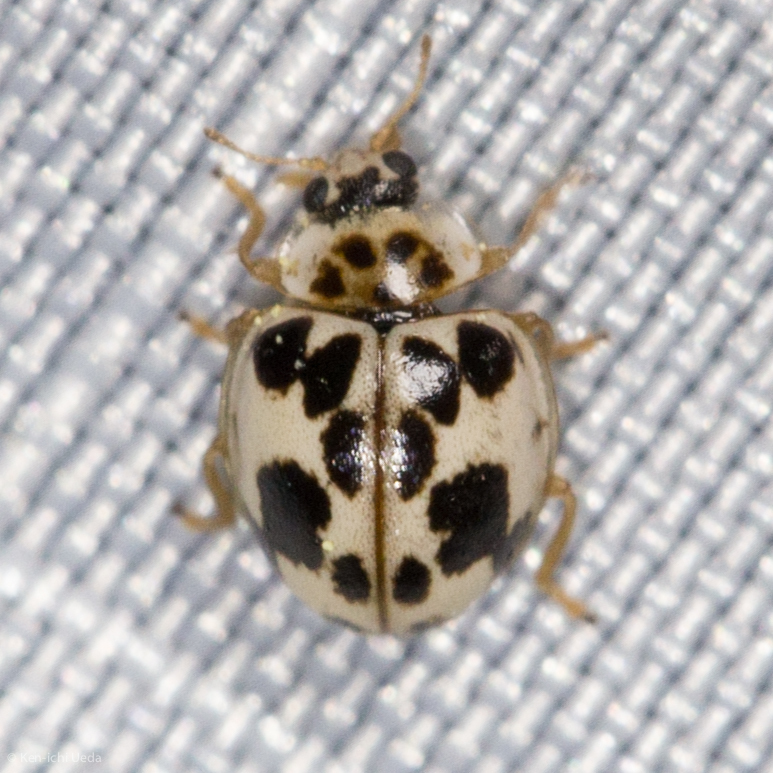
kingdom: Animalia
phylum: Arthropoda
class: Insecta
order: Coleoptera
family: Coccinellidae
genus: Psyllobora
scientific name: Psyllobora borealis
